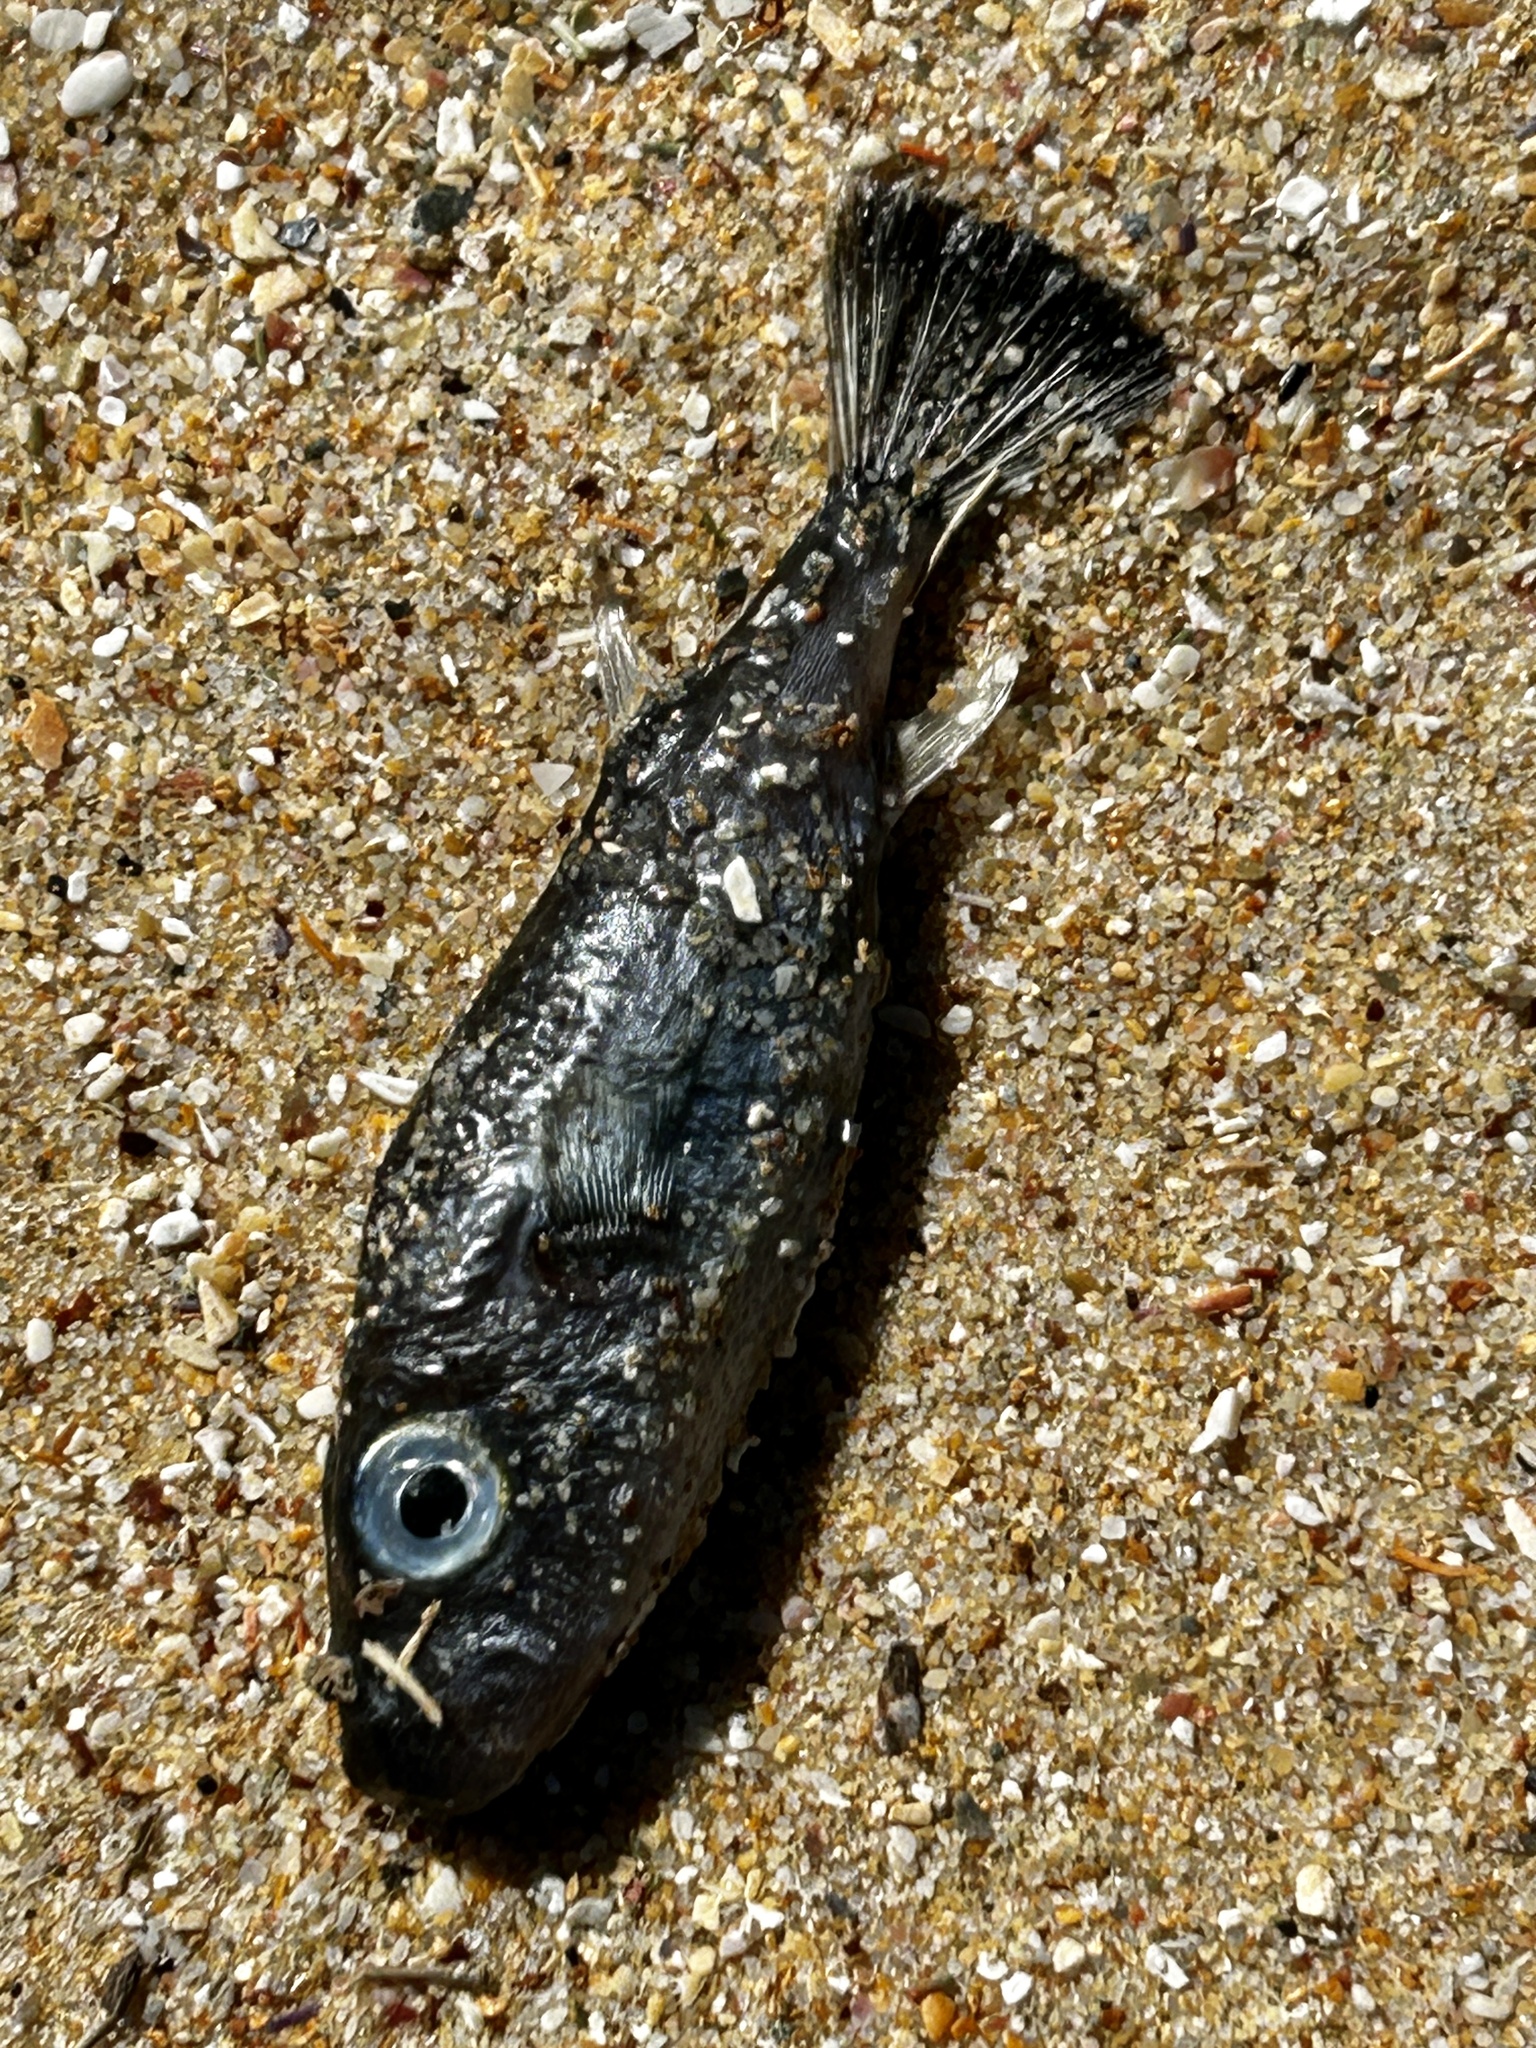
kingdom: Animalia
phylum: Chordata
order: Tetraodontiformes
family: Tetraodontidae
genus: Amblyrhynchote
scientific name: Amblyrhynchote honckenii
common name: Evileye blaasop
